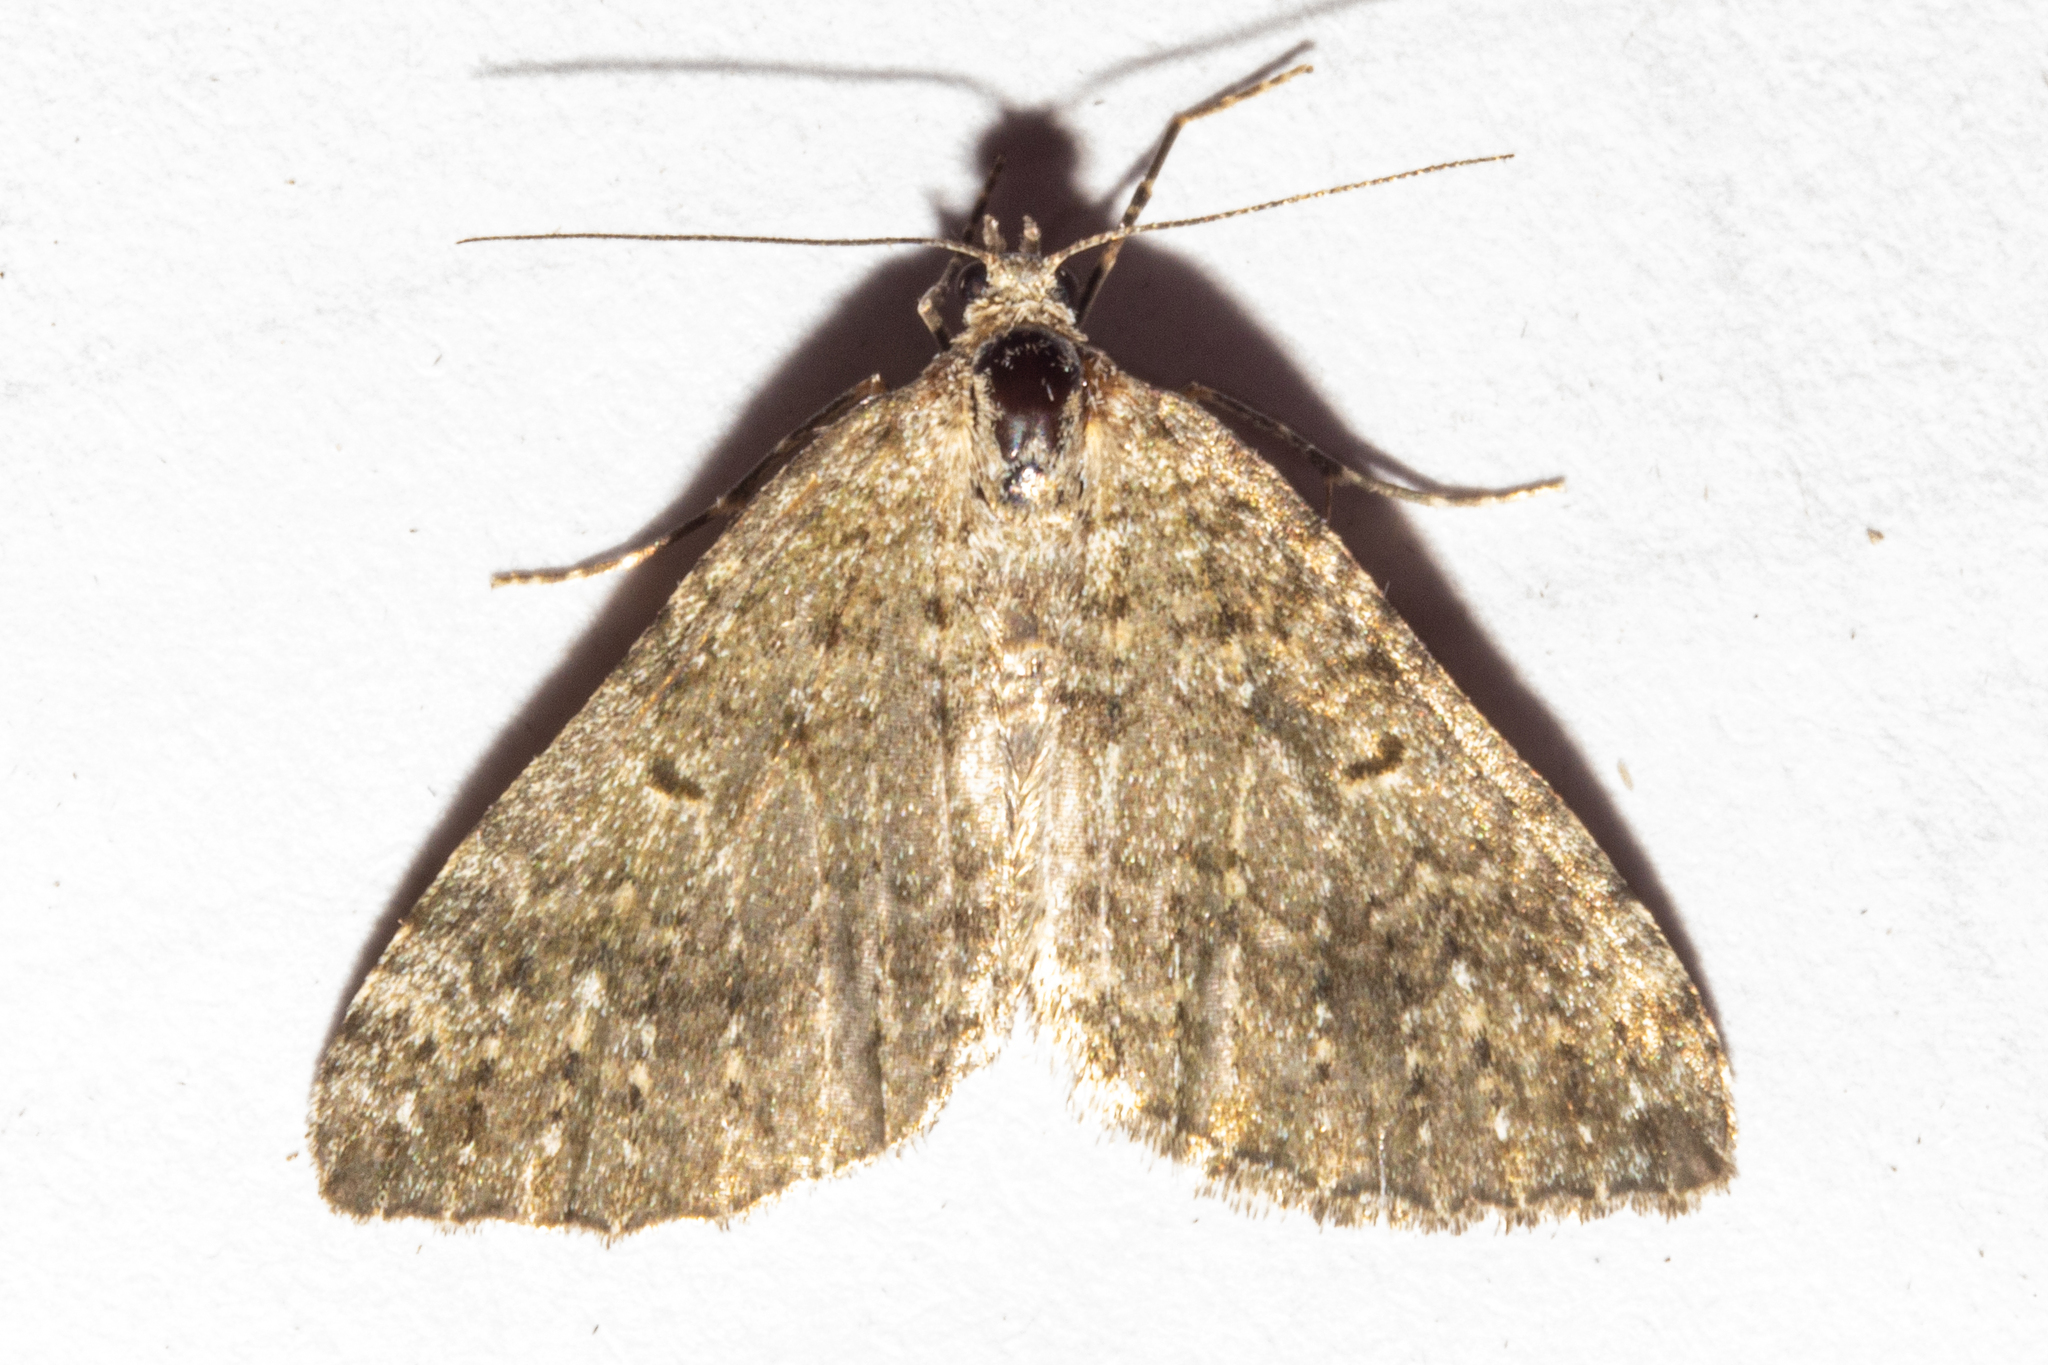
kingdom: Animalia
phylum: Arthropoda
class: Insecta
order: Lepidoptera
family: Geometridae
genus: Helastia
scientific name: Helastia corcularia
